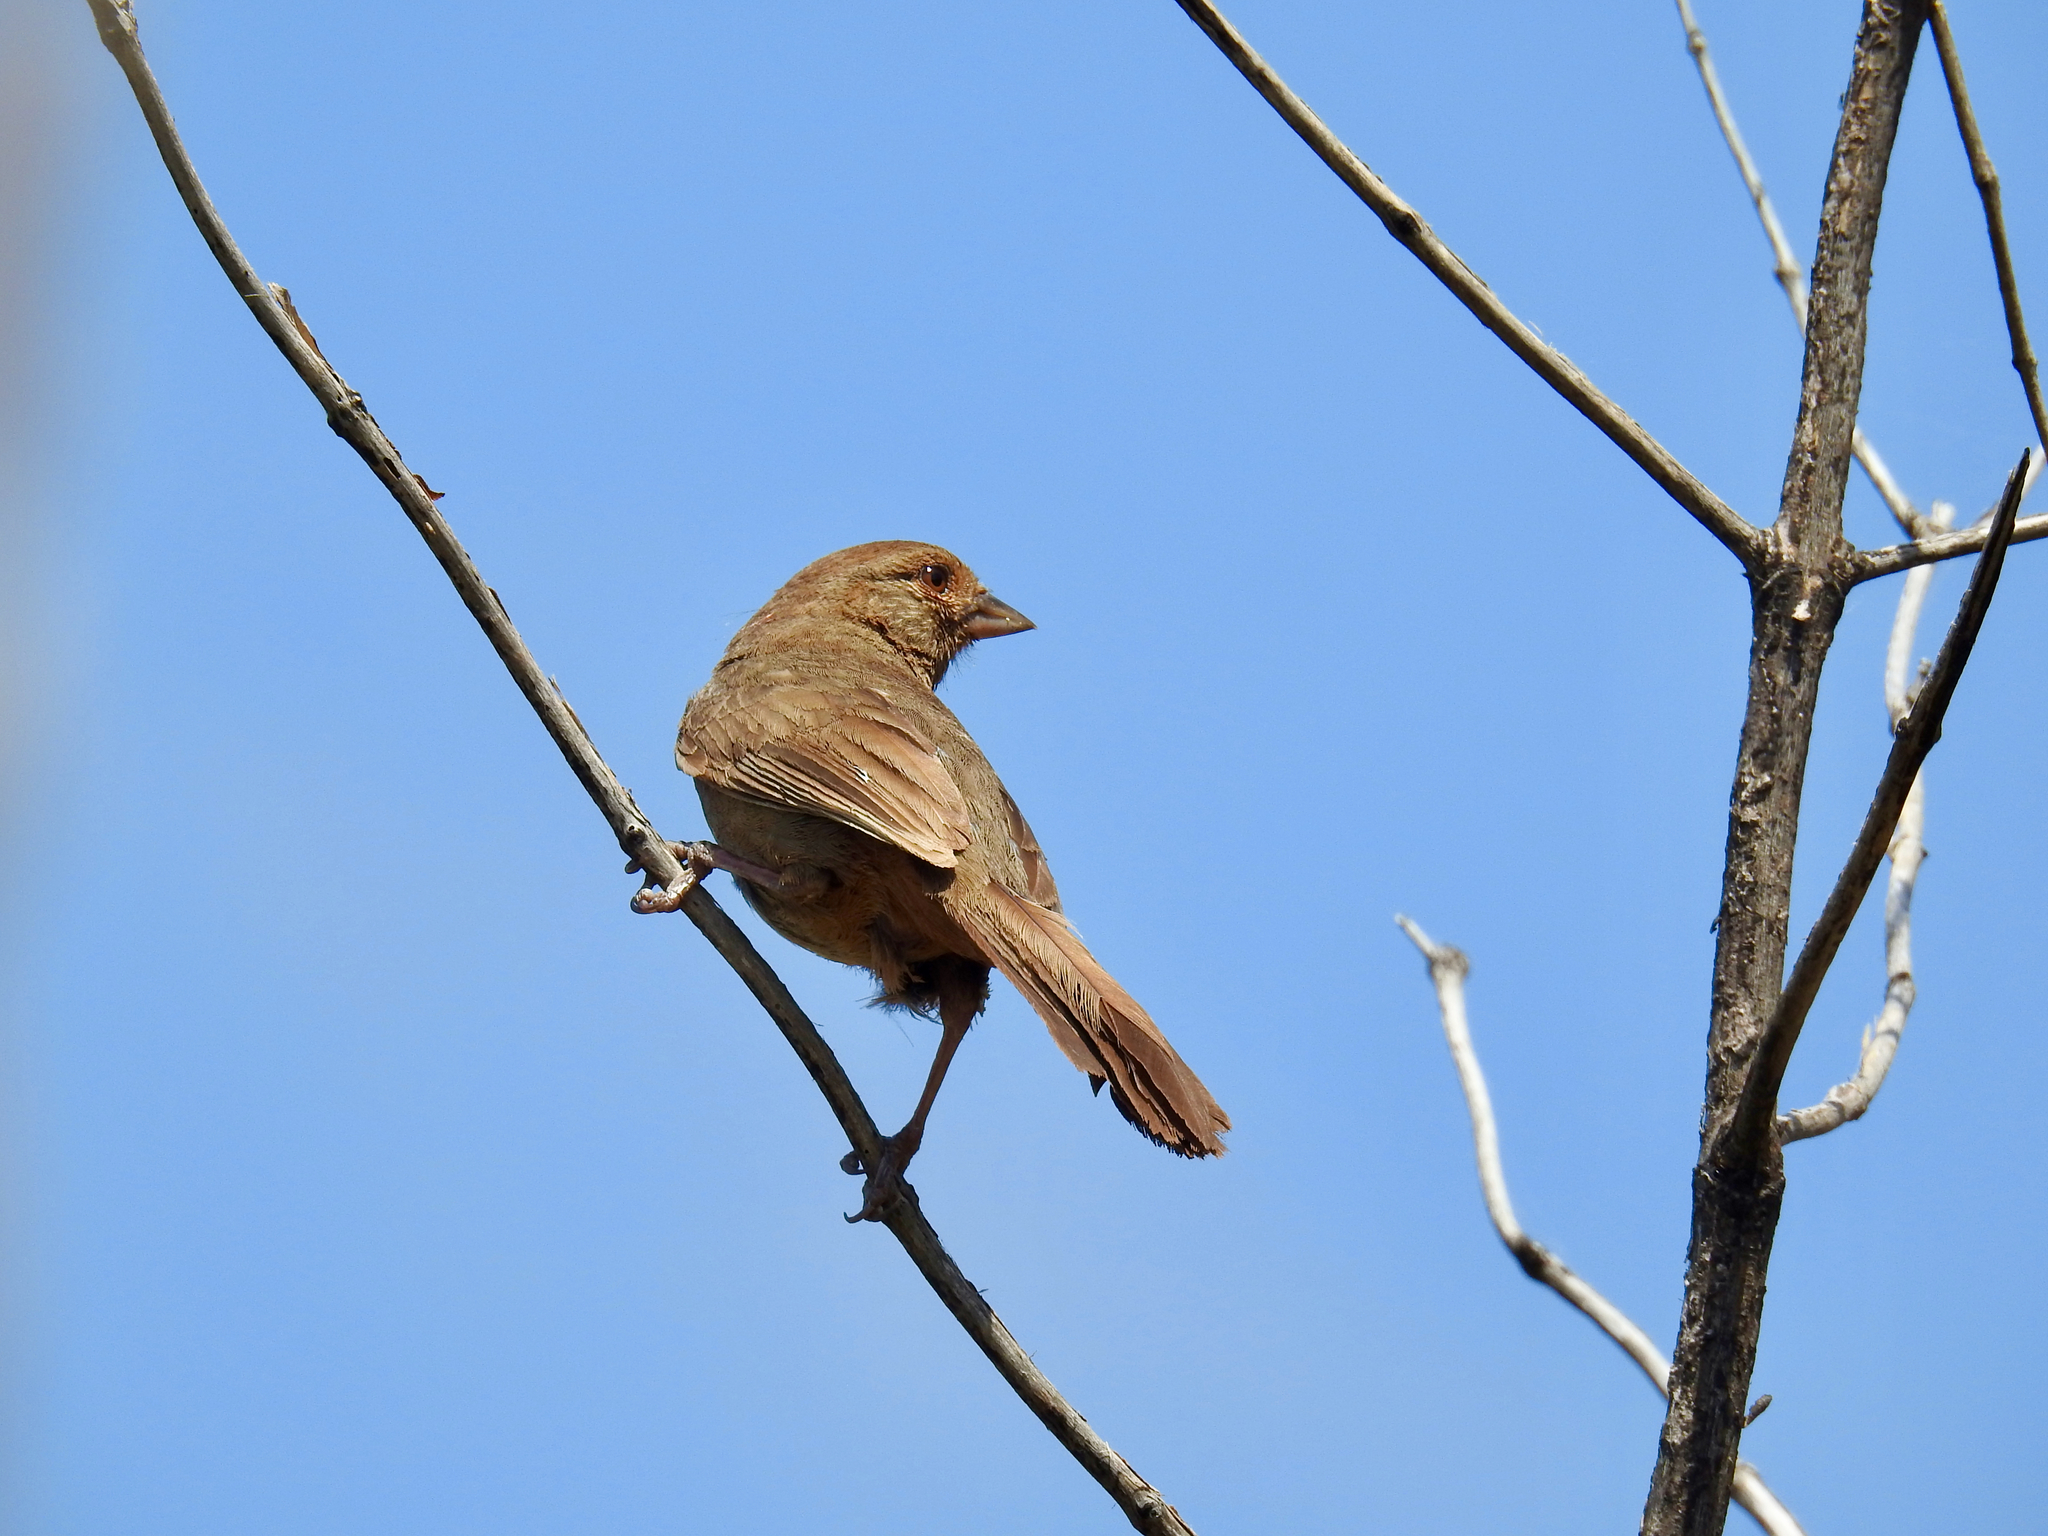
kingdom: Animalia
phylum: Chordata
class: Aves
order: Passeriformes
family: Passerellidae
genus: Melozone
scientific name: Melozone crissalis
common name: California towhee
